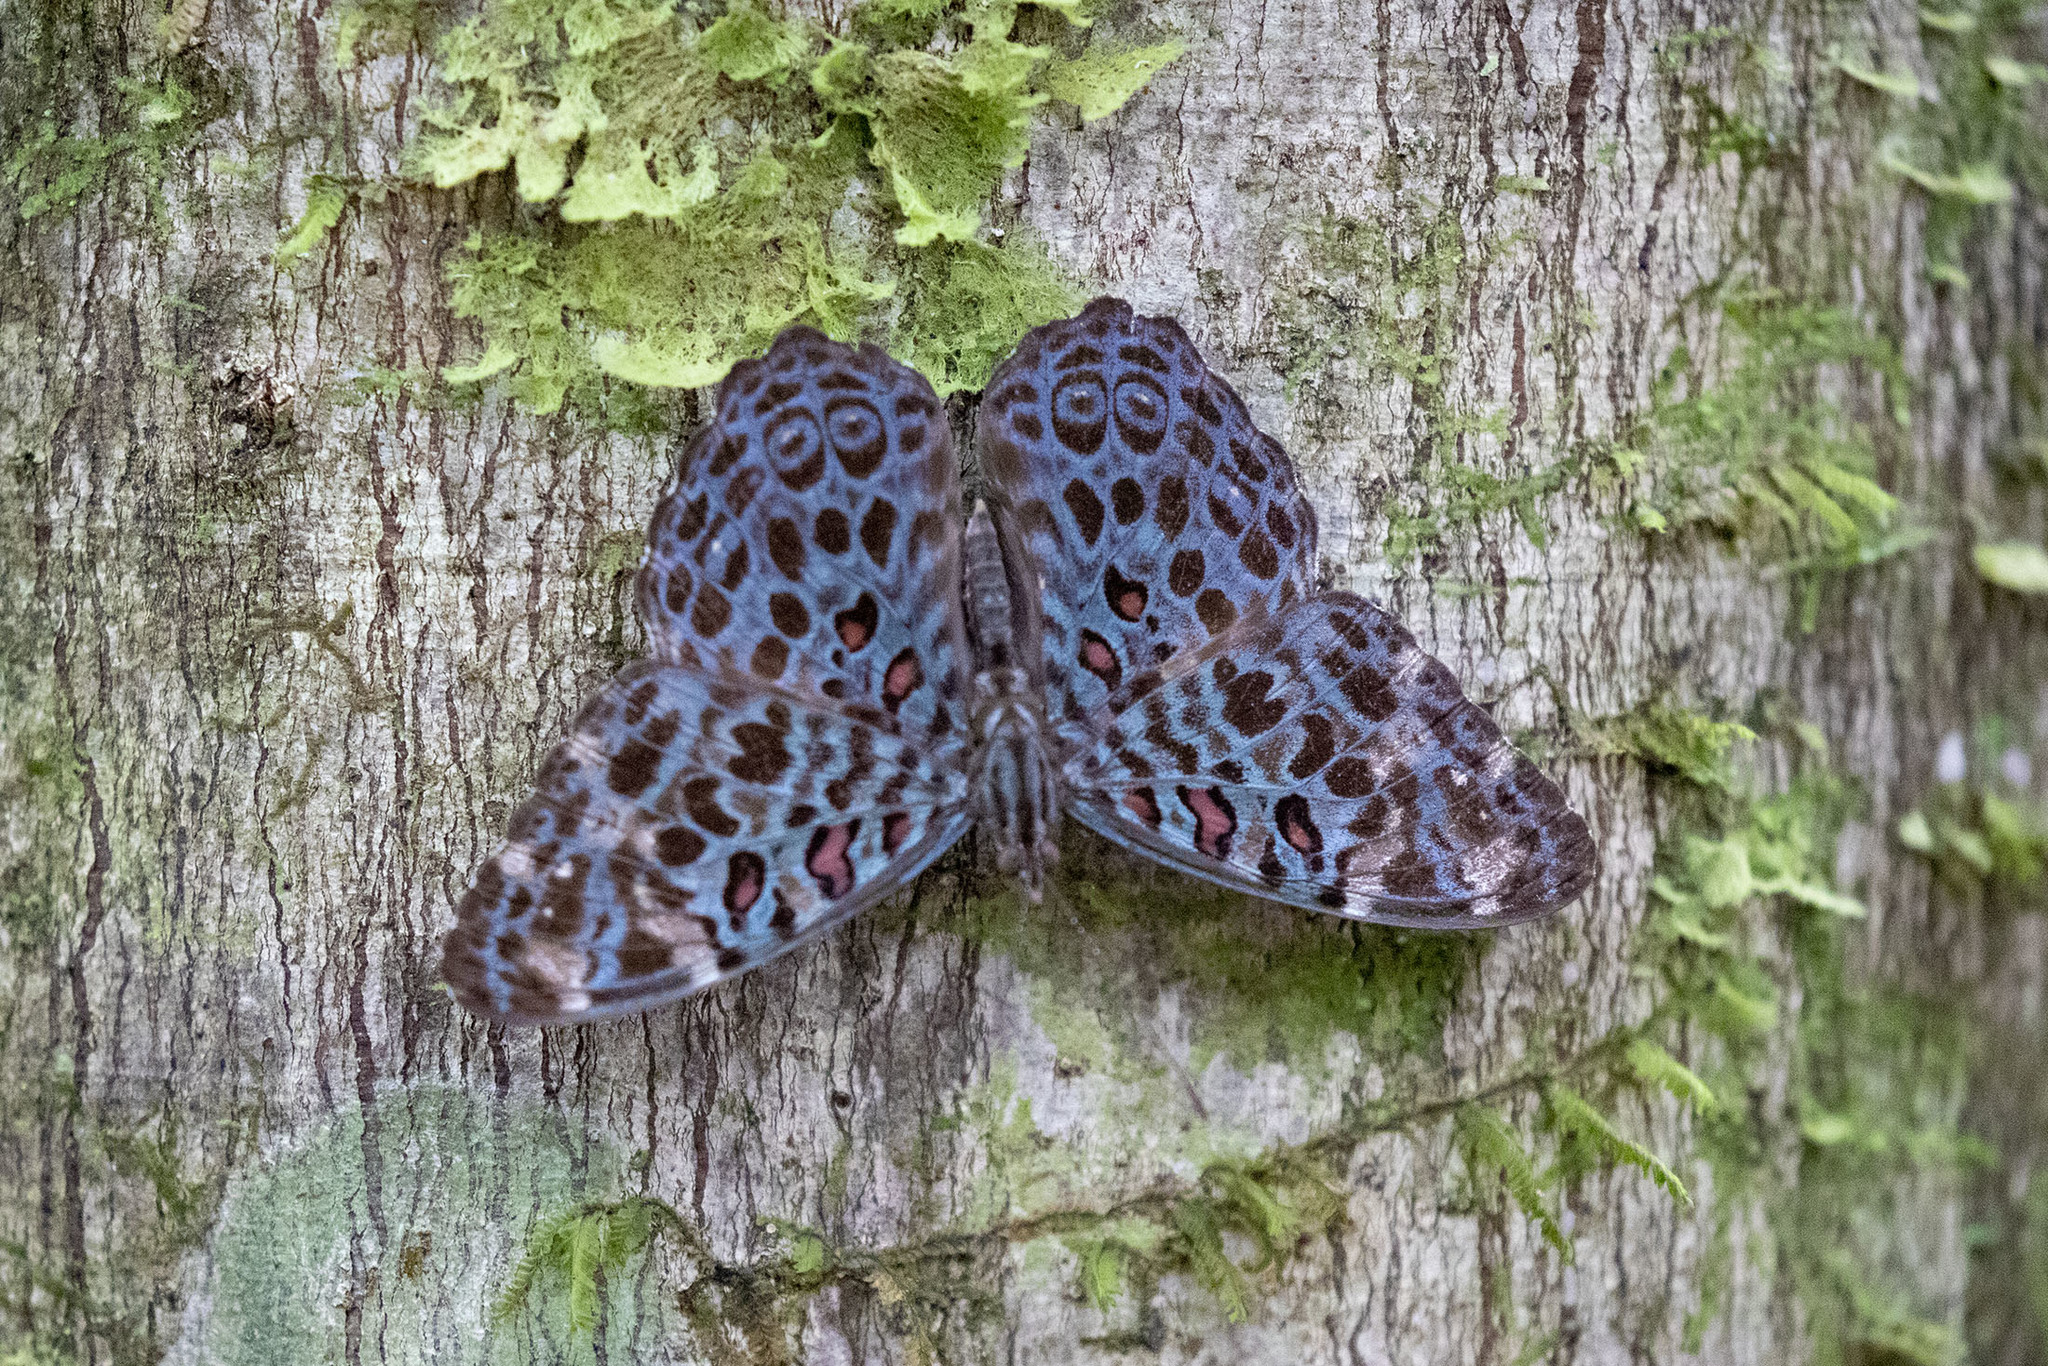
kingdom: Animalia
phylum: Arthropoda
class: Insecta
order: Lepidoptera
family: Nymphalidae
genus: Hamadryas
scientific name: Hamadryas chloe
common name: Amazon cracker
